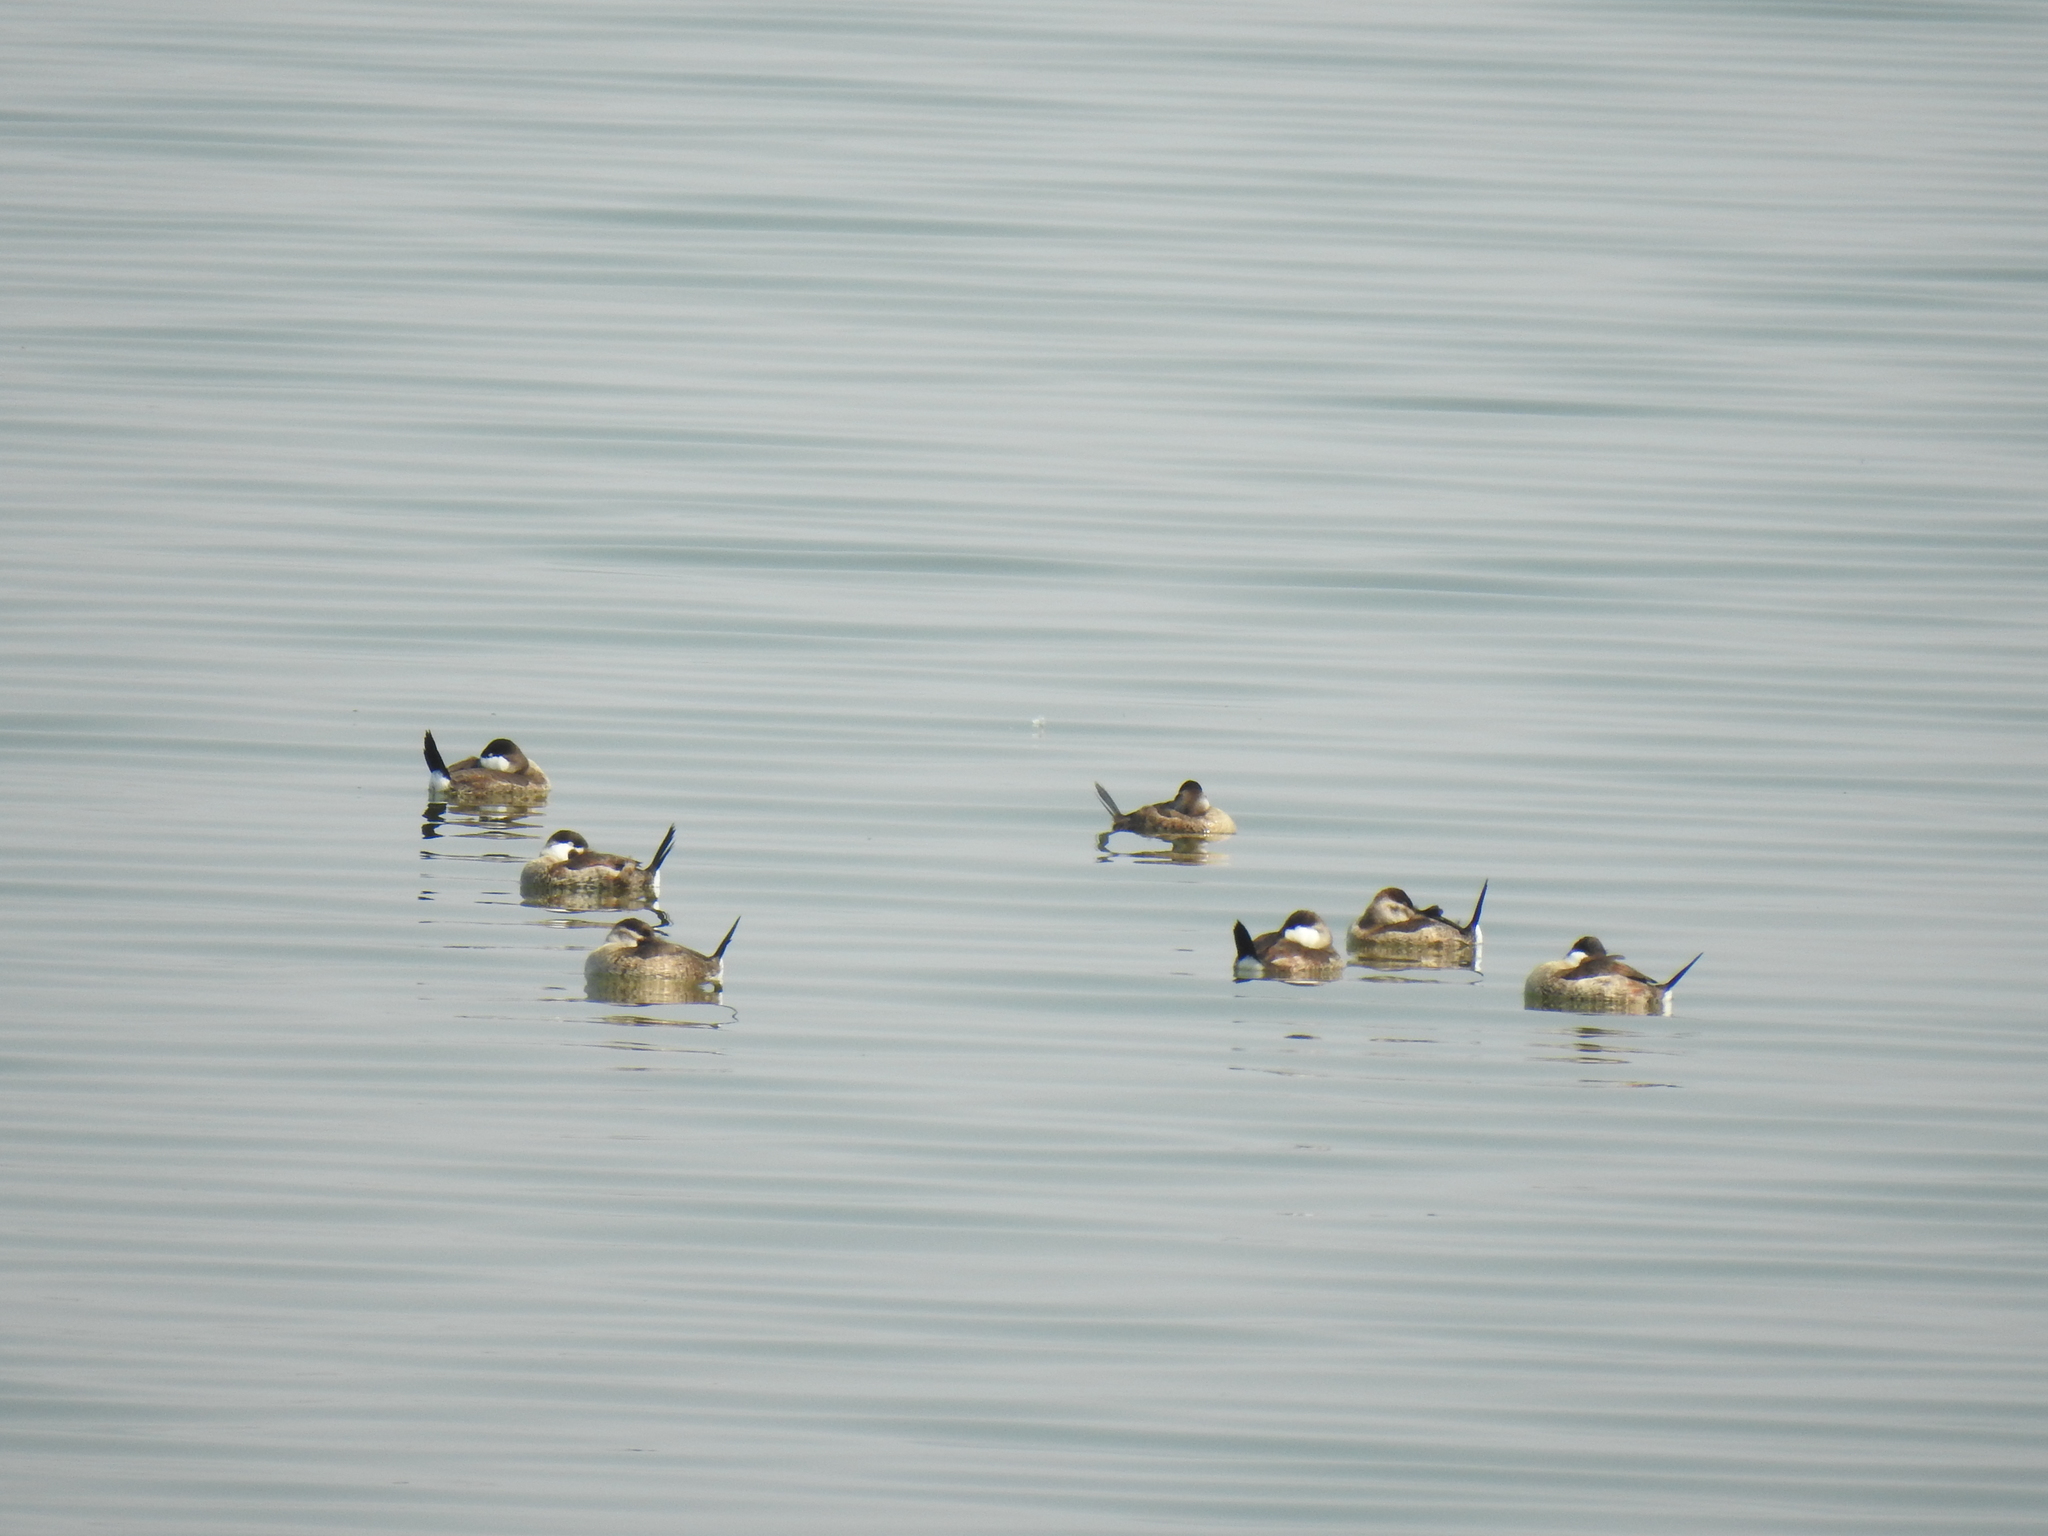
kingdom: Animalia
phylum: Chordata
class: Aves
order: Anseriformes
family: Anatidae
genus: Oxyura
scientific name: Oxyura jamaicensis
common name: Ruddy duck
